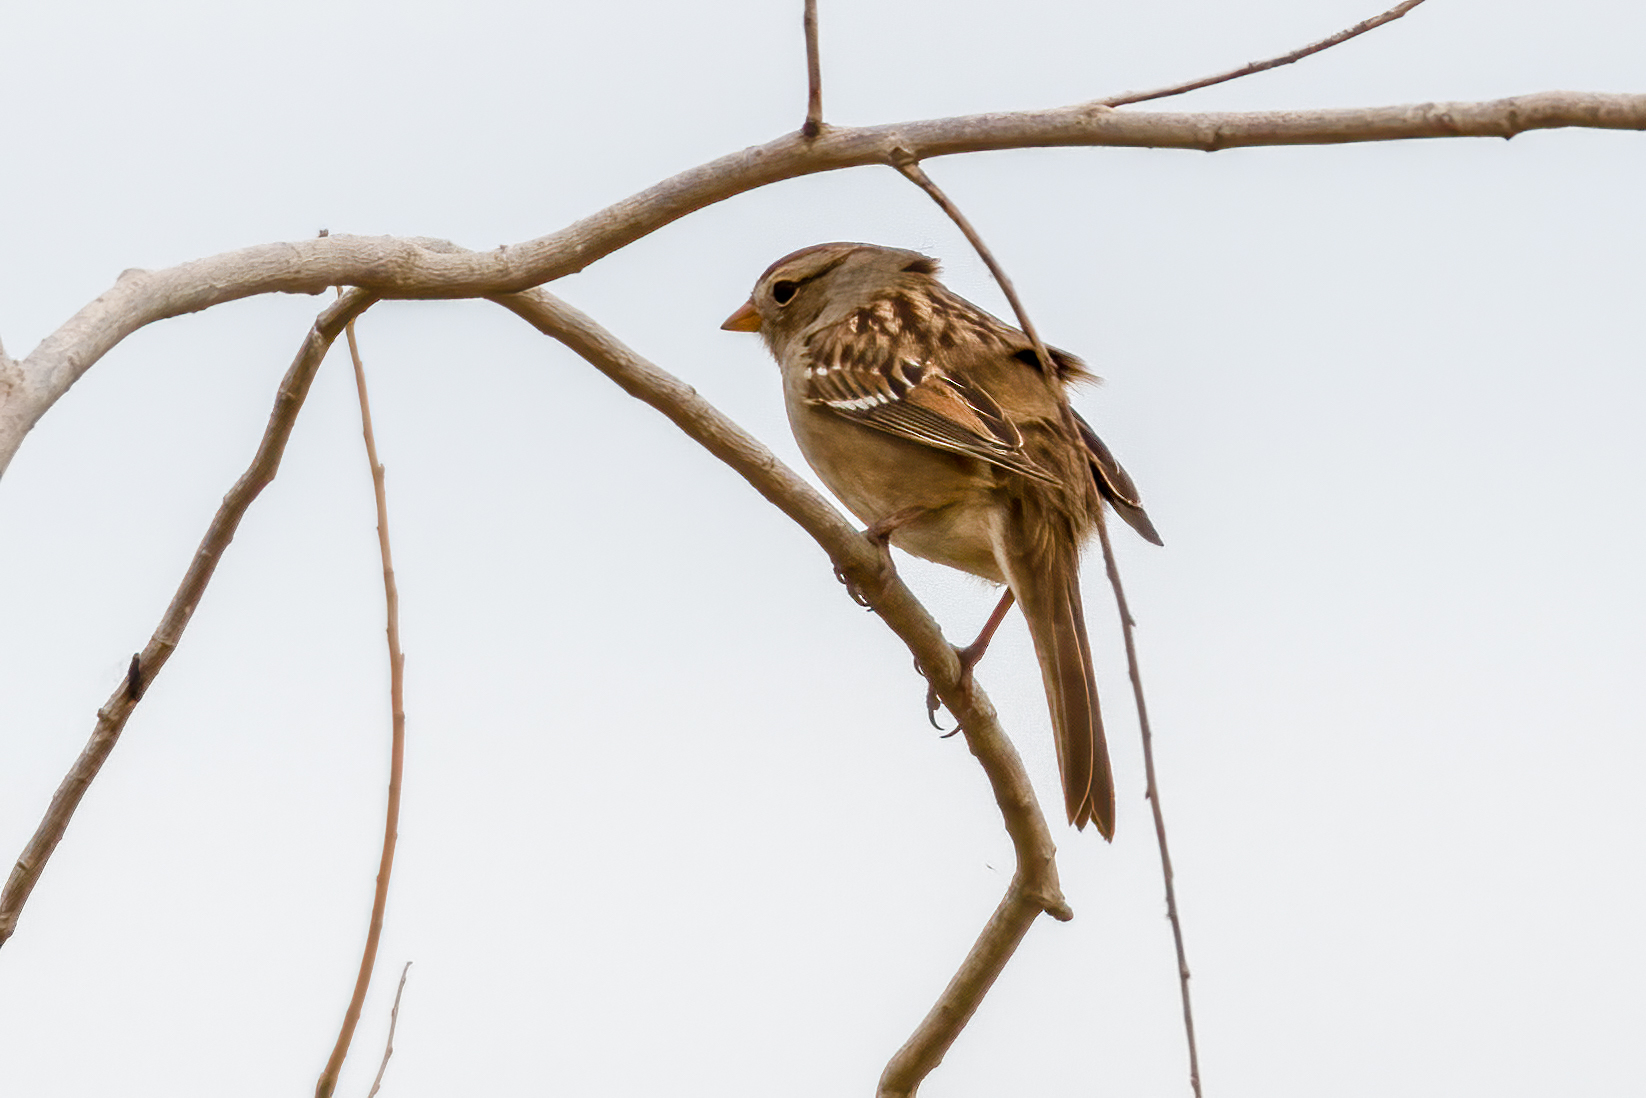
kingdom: Animalia
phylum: Chordata
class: Aves
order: Passeriformes
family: Passerellidae
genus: Zonotrichia
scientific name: Zonotrichia leucophrys
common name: White-crowned sparrow
